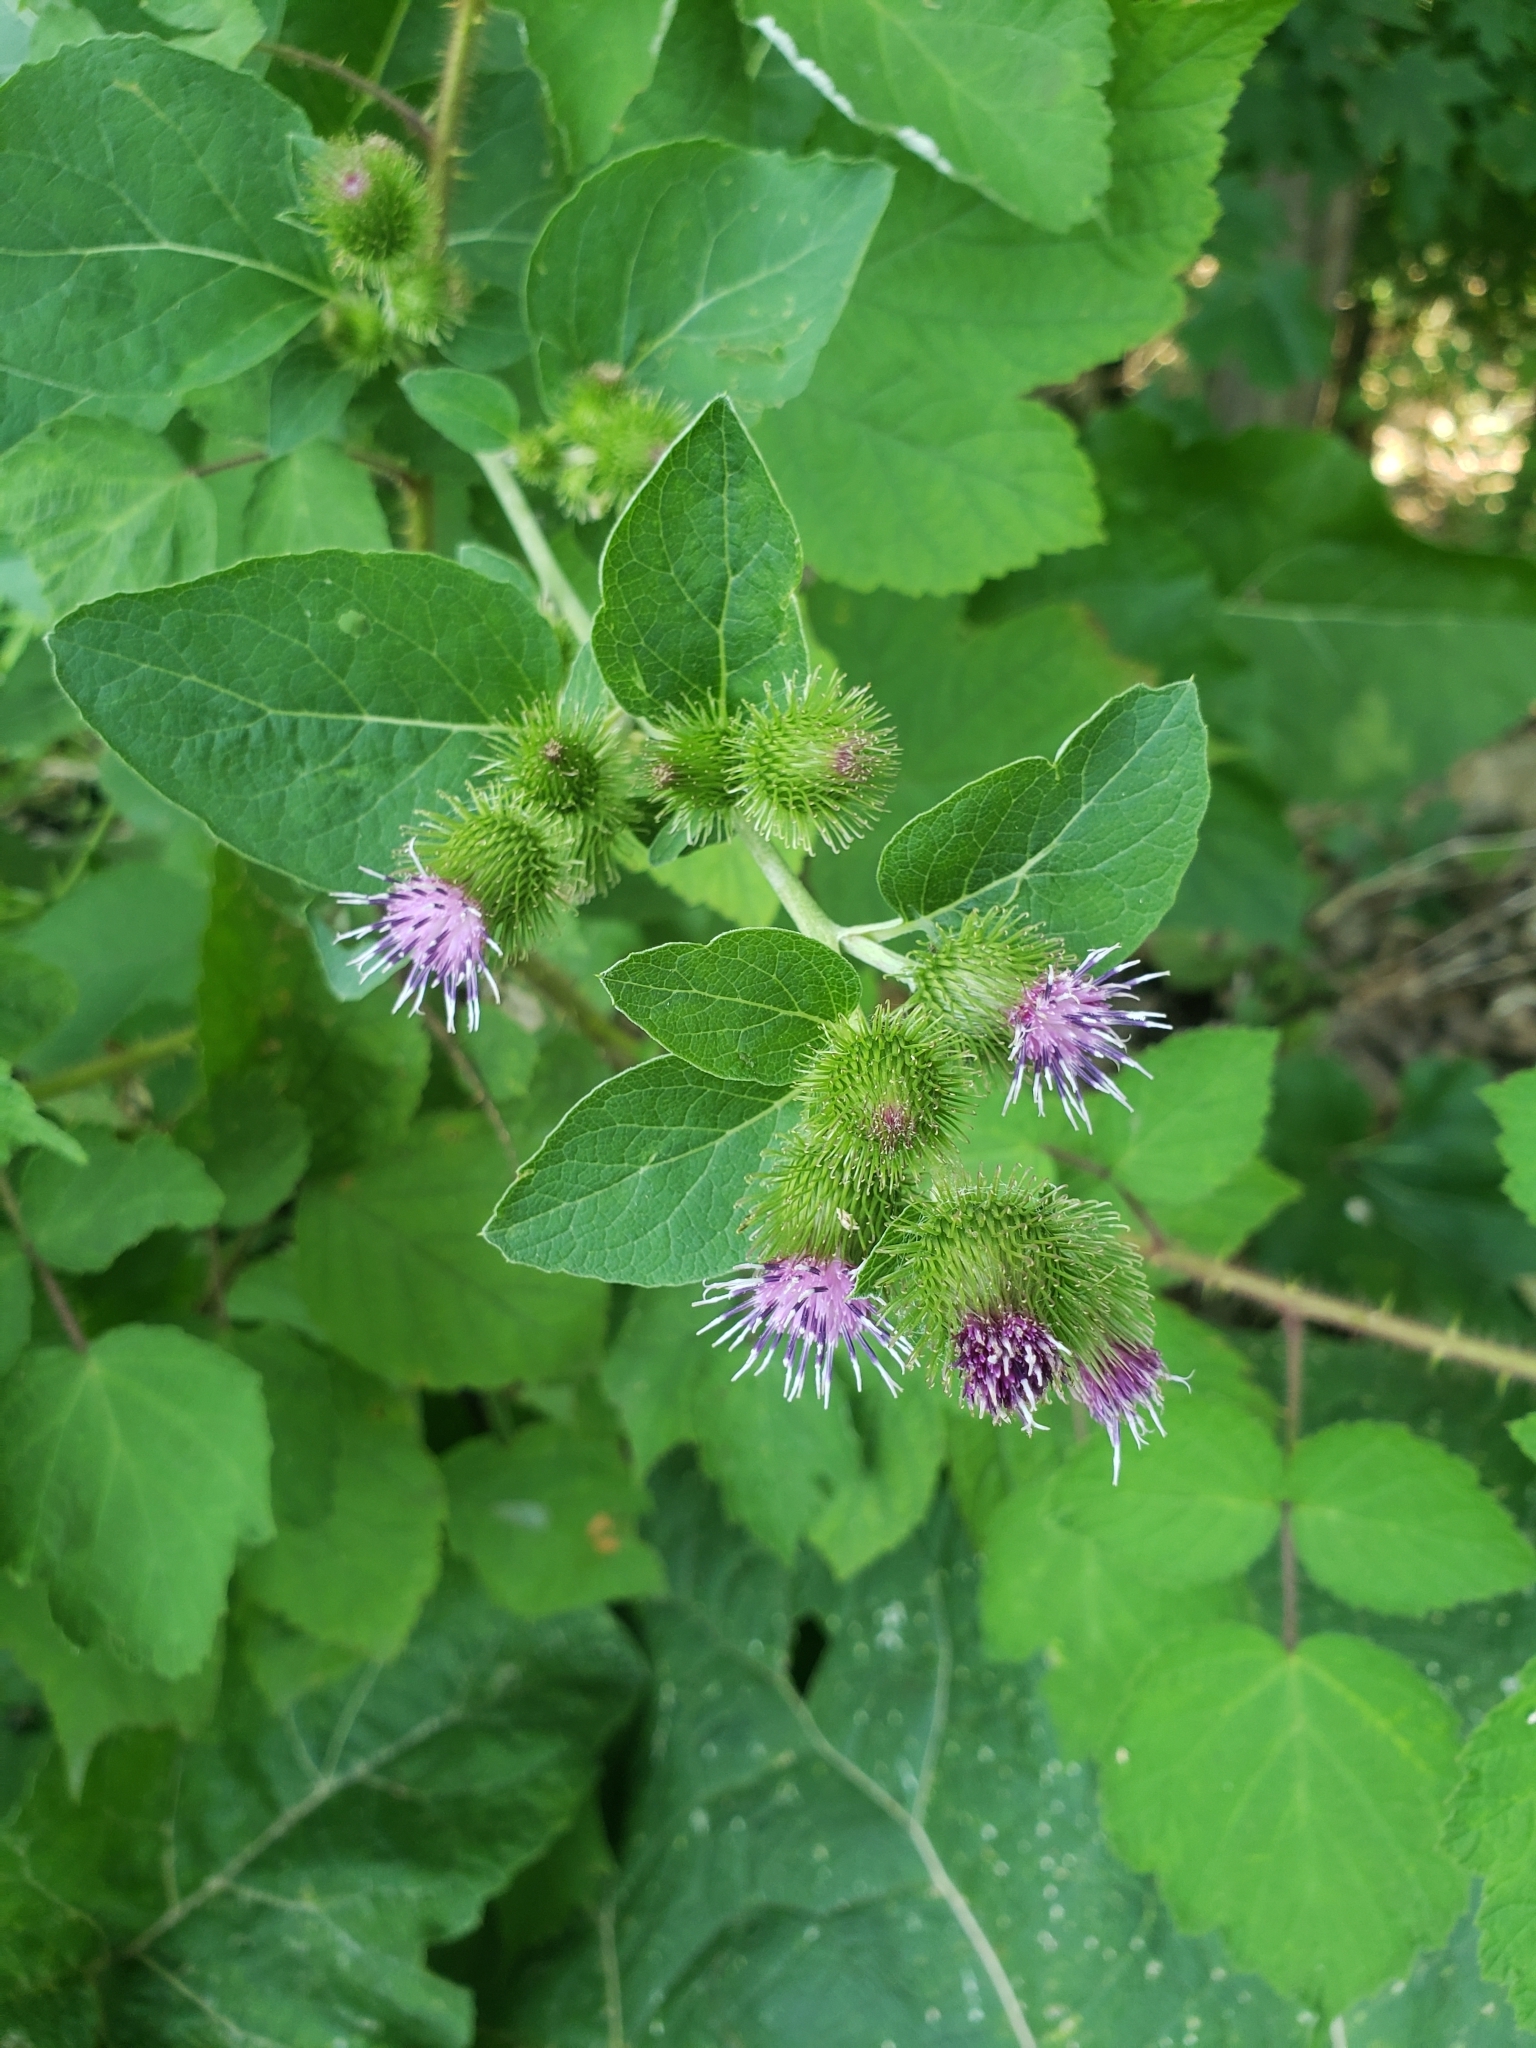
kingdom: Plantae
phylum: Tracheophyta
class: Magnoliopsida
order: Asterales
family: Asteraceae
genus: Arctium
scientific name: Arctium minus
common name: Lesser burdock
